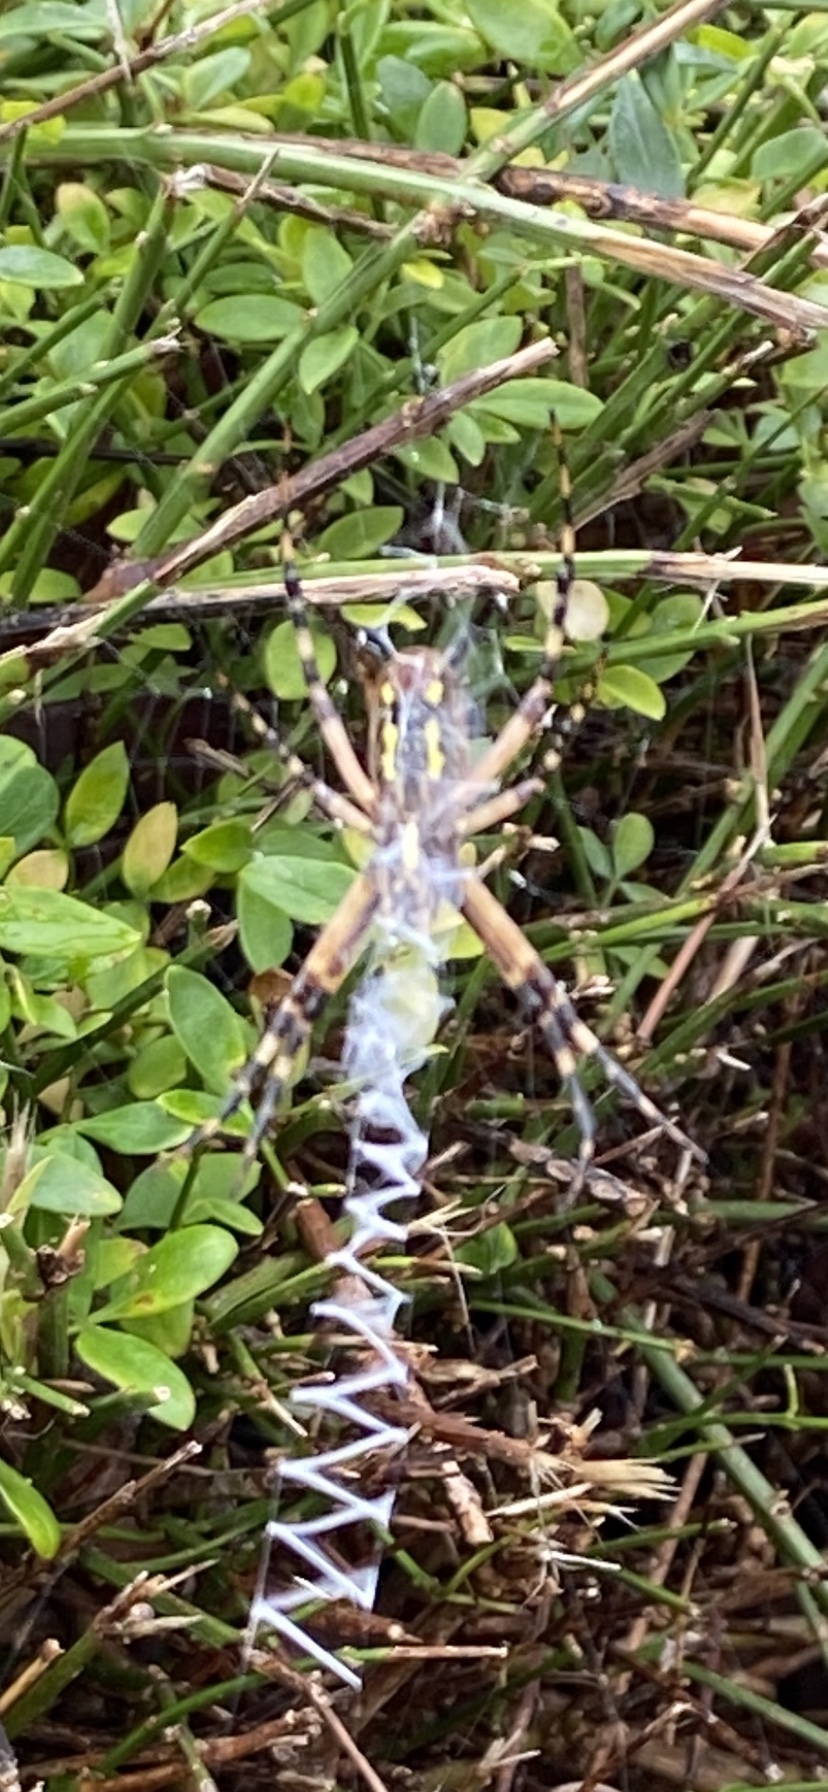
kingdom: Animalia
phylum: Arthropoda
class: Arachnida
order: Araneae
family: Araneidae
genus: Argiope
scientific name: Argiope aurantia
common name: Orb weavers
